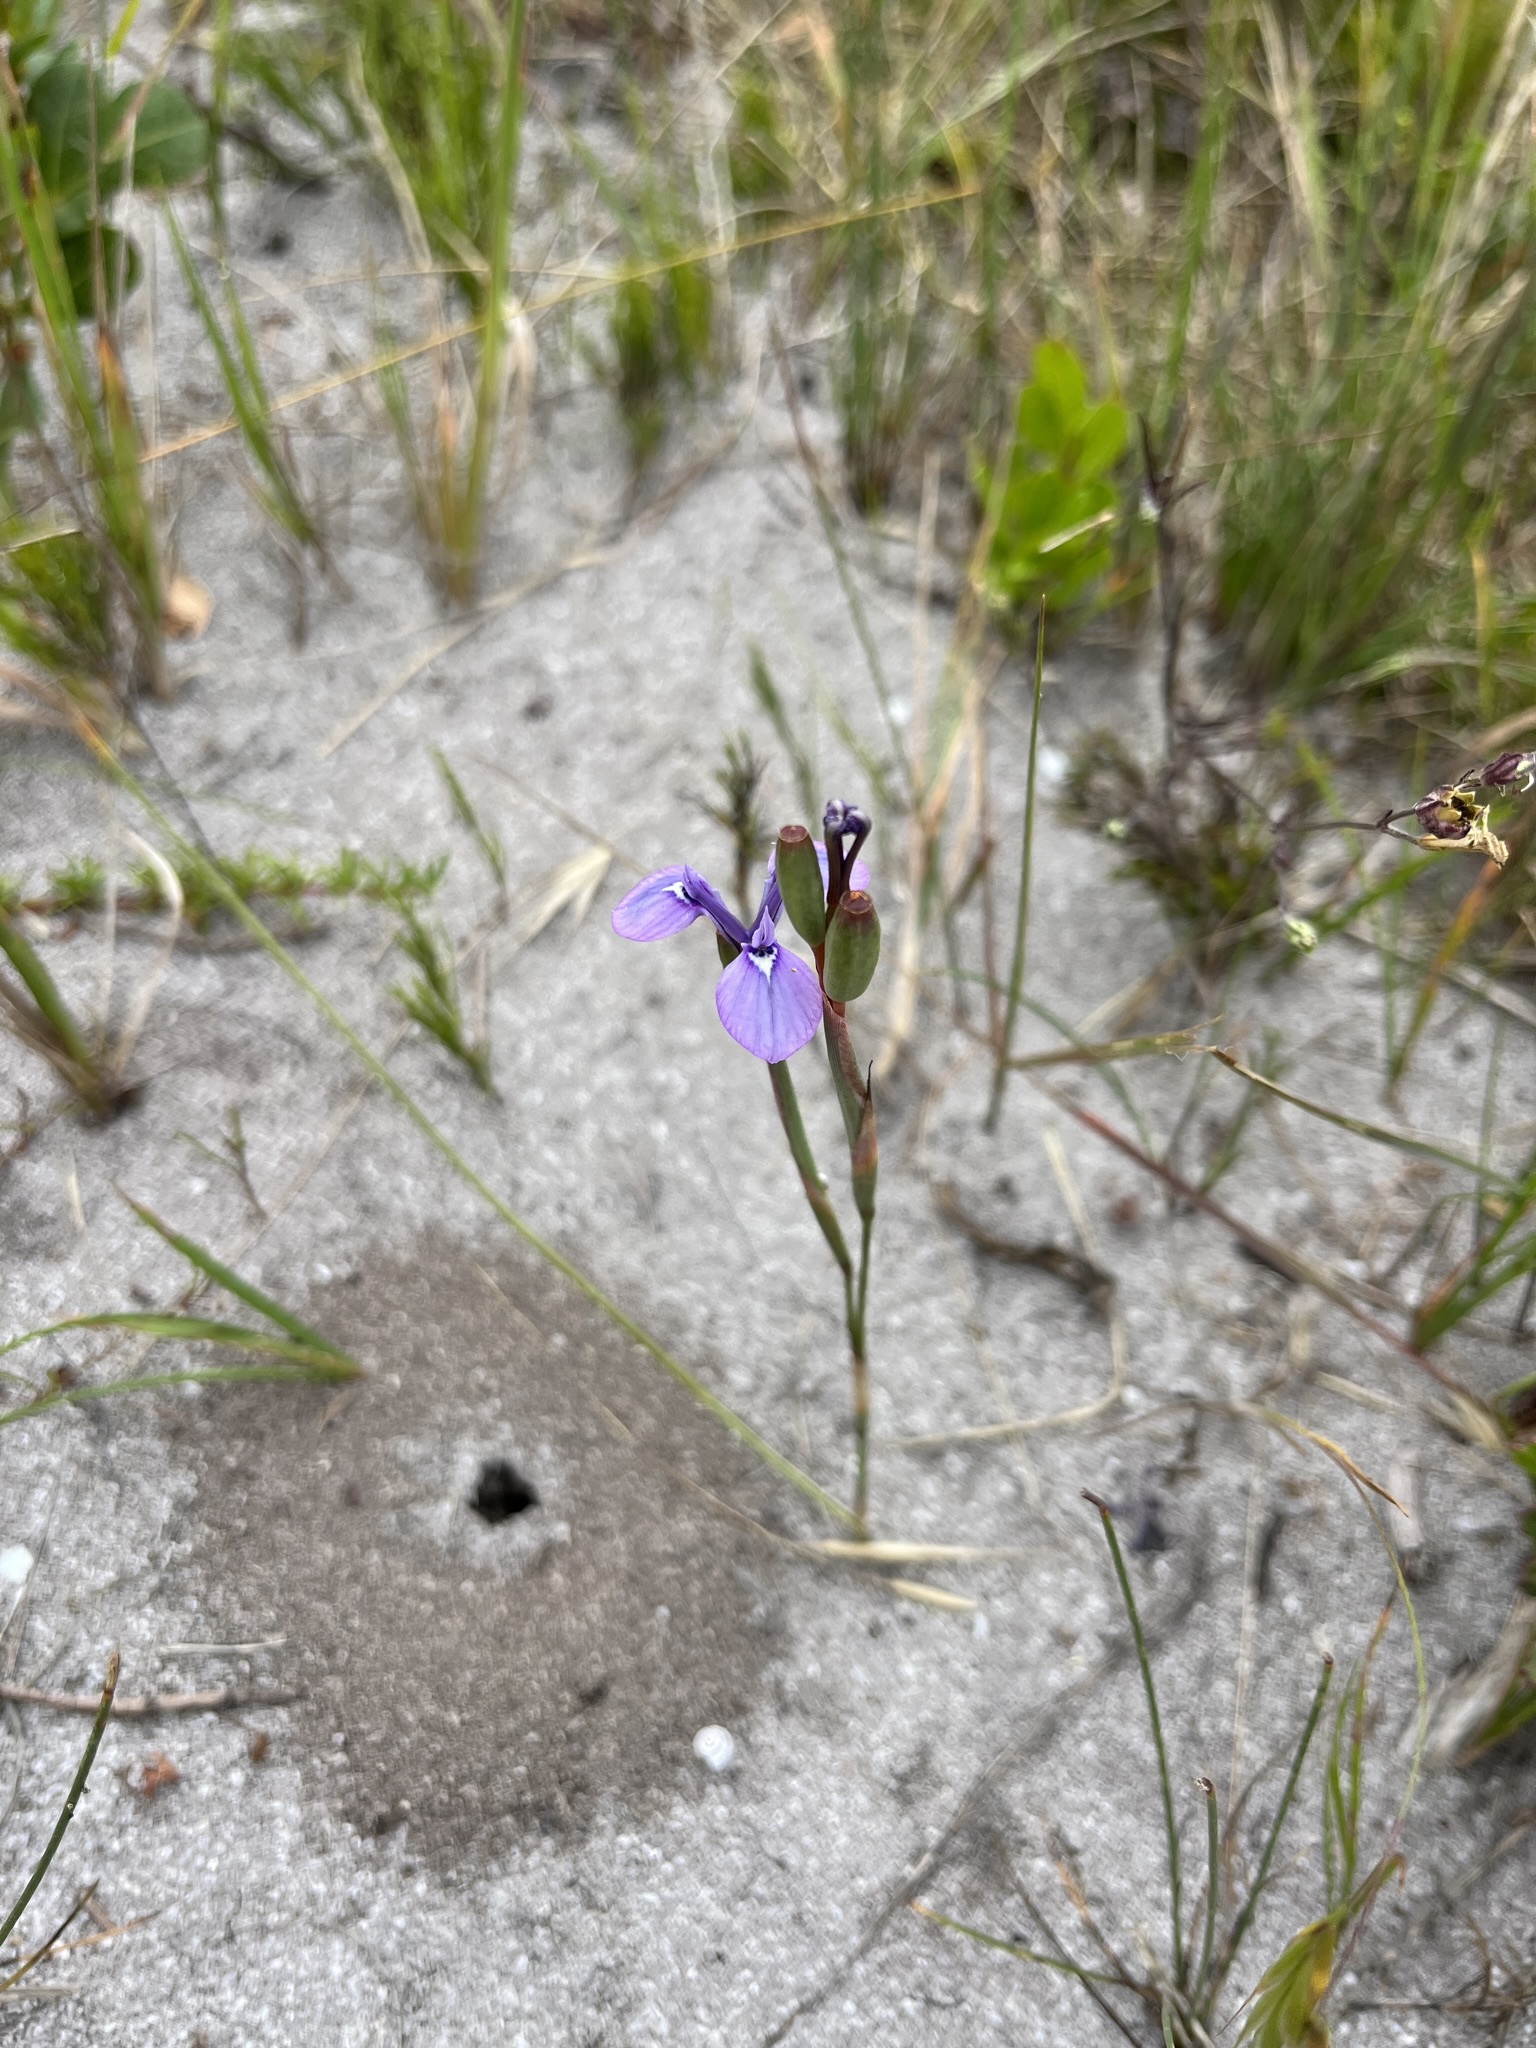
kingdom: Plantae
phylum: Tracheophyta
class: Liliopsida
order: Asparagales
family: Iridaceae
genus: Moraea
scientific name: Moraea tripetala
